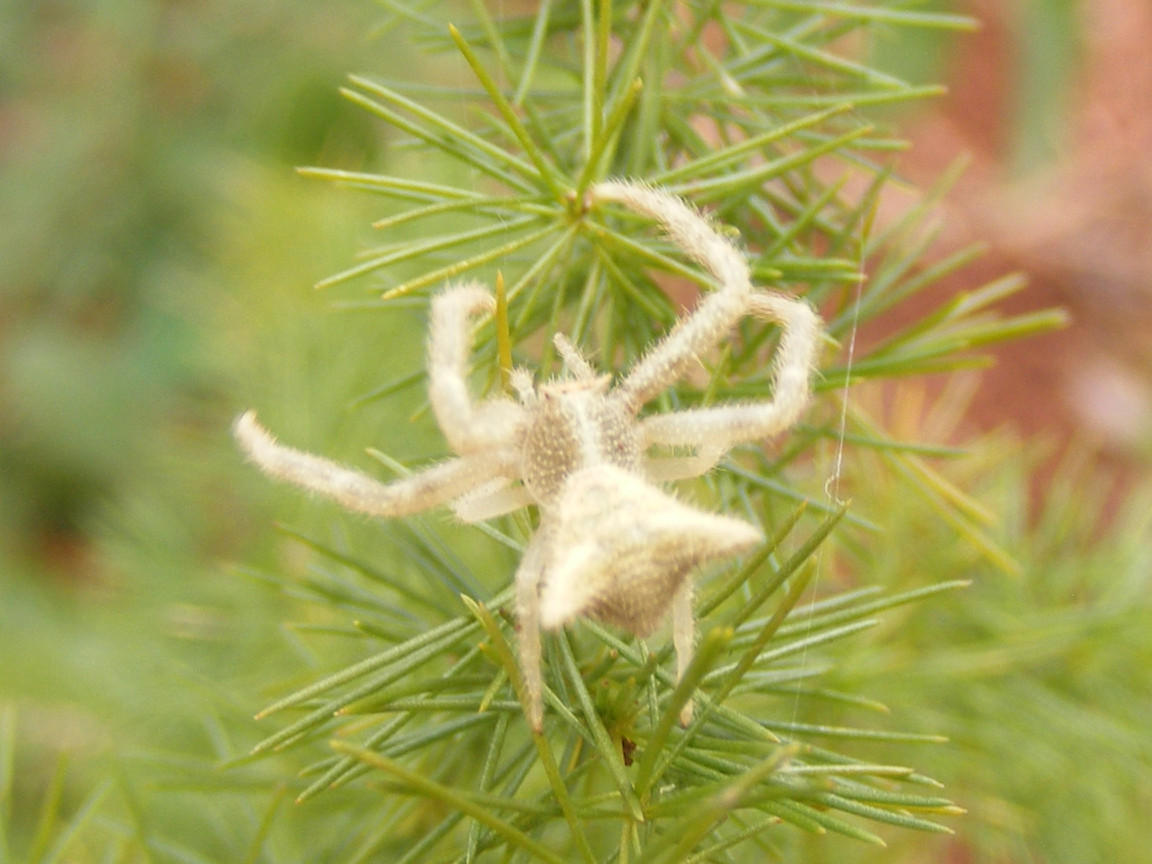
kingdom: Animalia
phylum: Arthropoda
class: Arachnida
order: Araneae
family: Thomisidae
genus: Thomisus
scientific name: Thomisus granulatus
